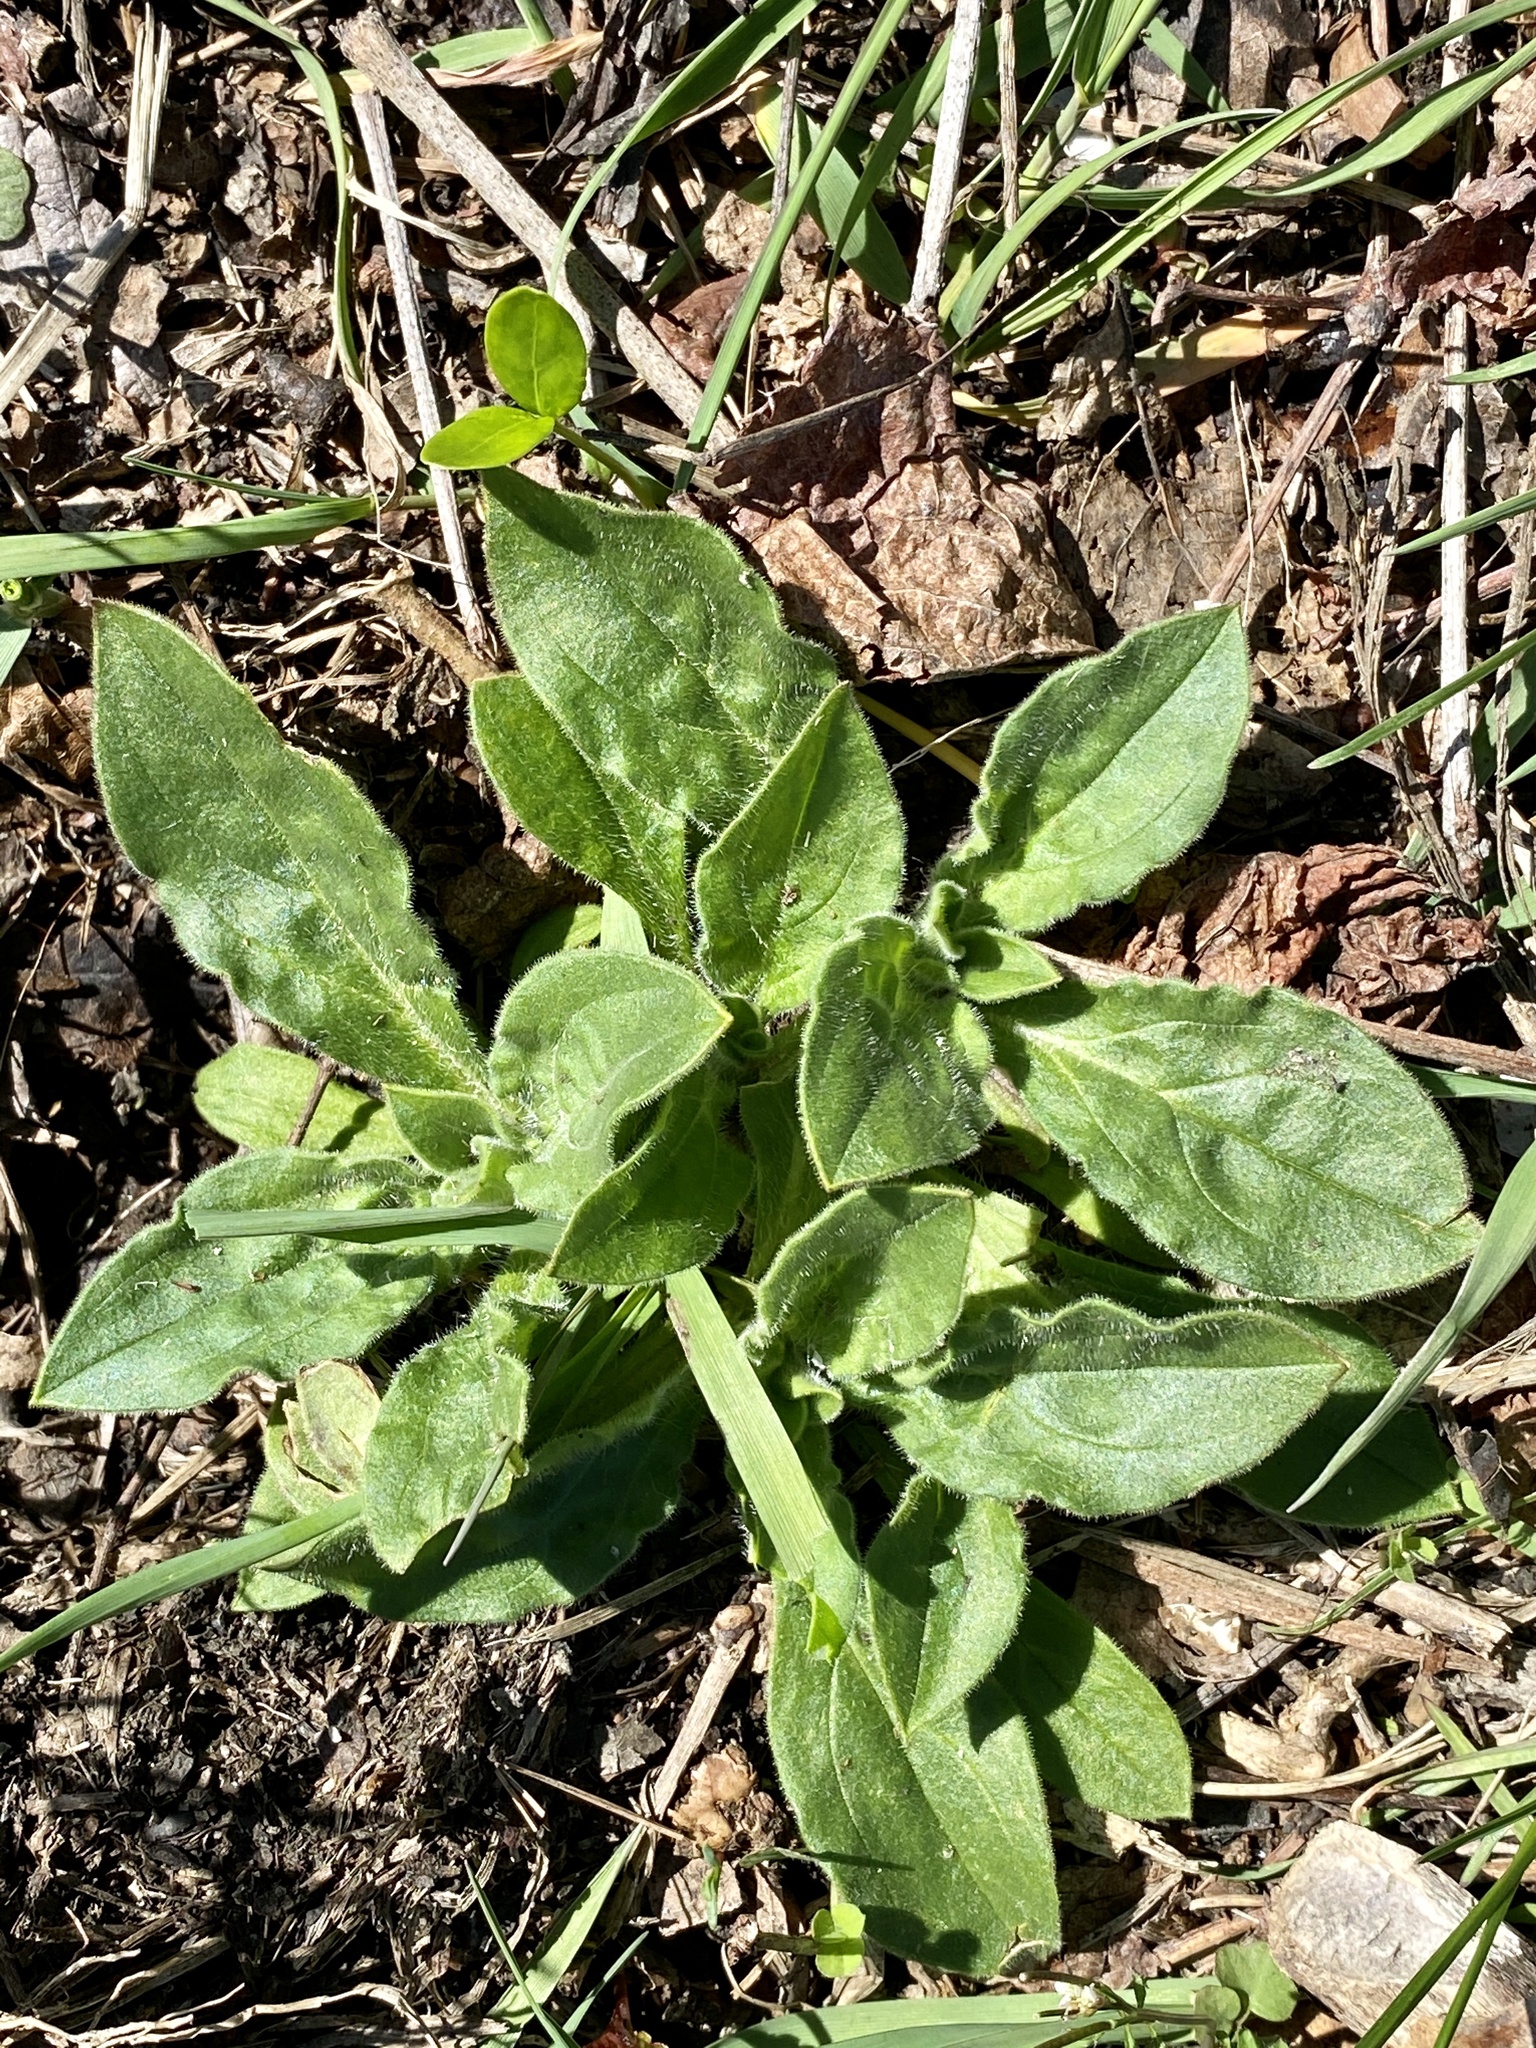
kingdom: Plantae
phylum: Tracheophyta
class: Magnoliopsida
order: Caryophyllales
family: Caryophyllaceae
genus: Silene
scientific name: Silene latifolia
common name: White campion
